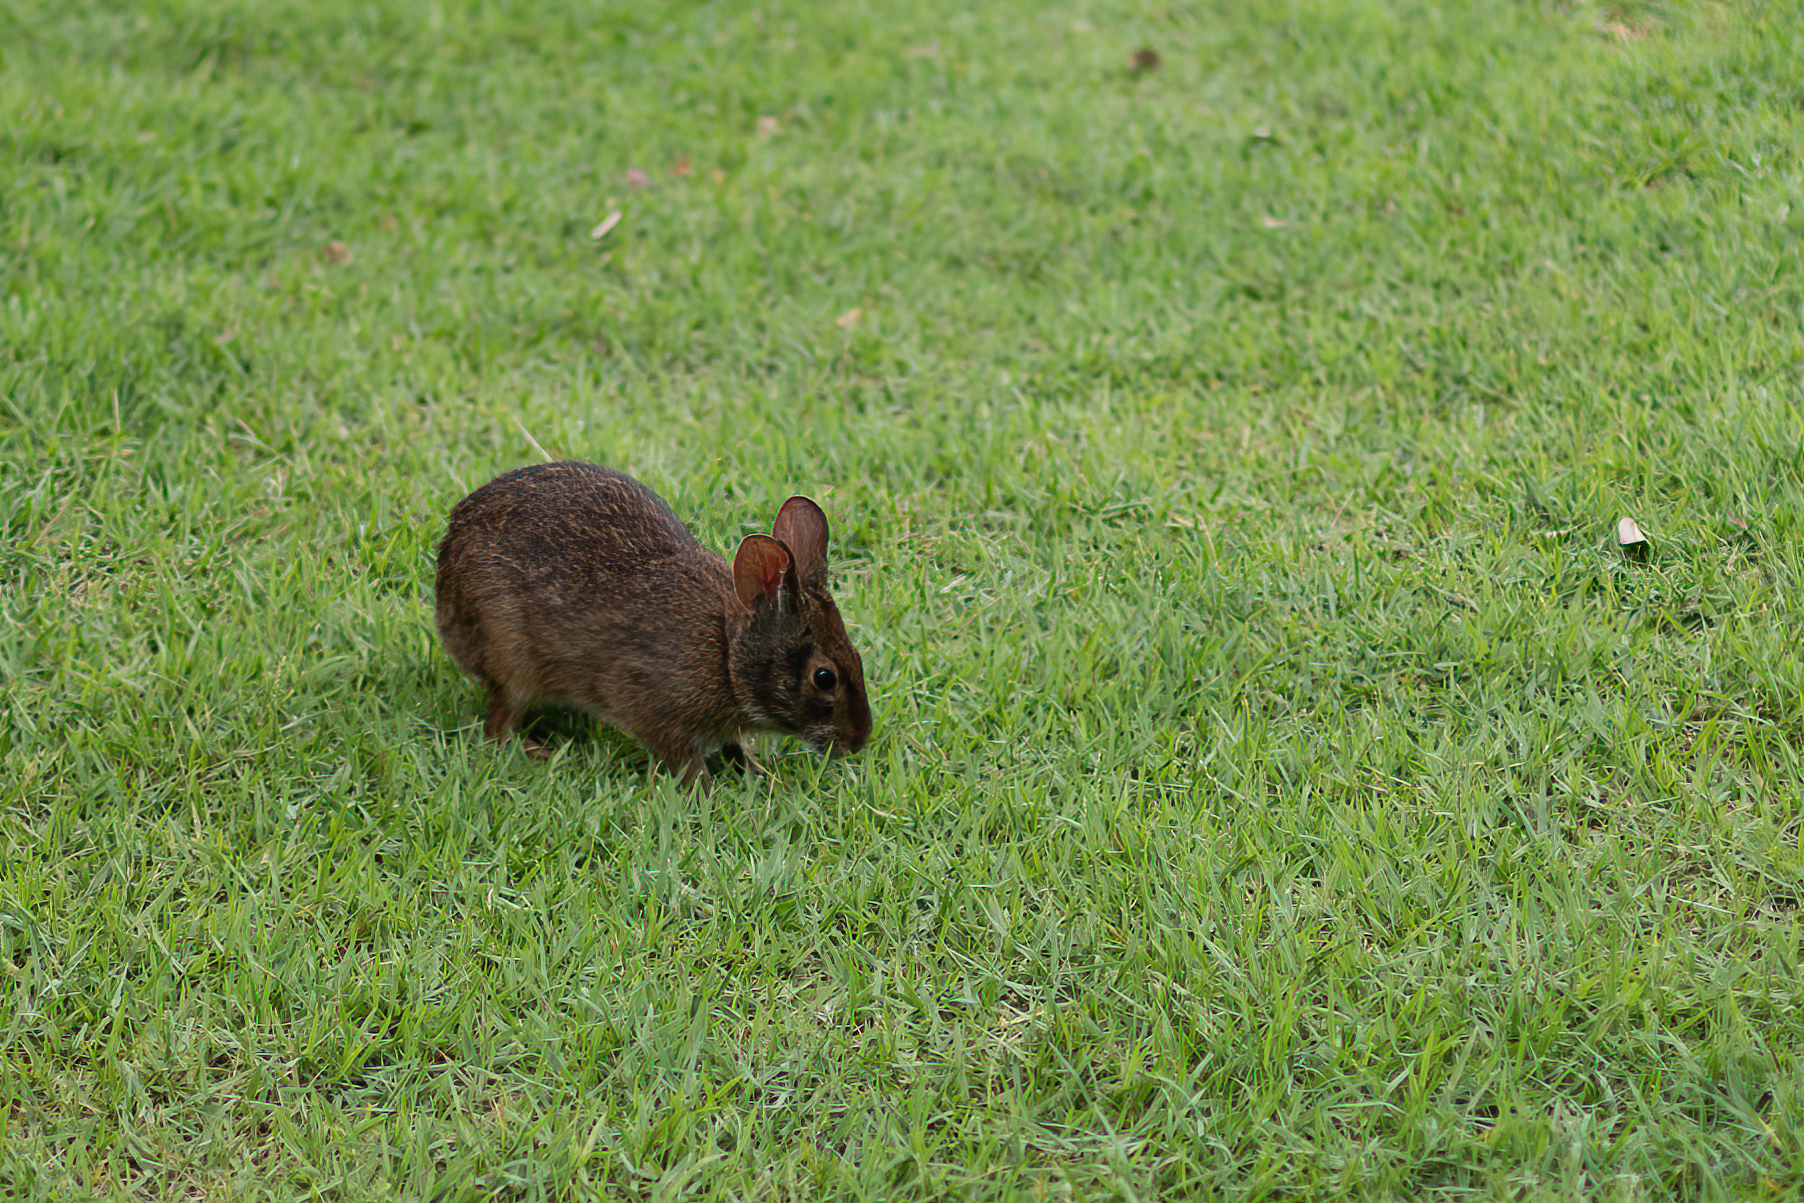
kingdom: Animalia
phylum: Chordata
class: Mammalia
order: Lagomorpha
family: Leporidae
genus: Sylvilagus
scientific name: Sylvilagus palustris
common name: Marsh rabbit
